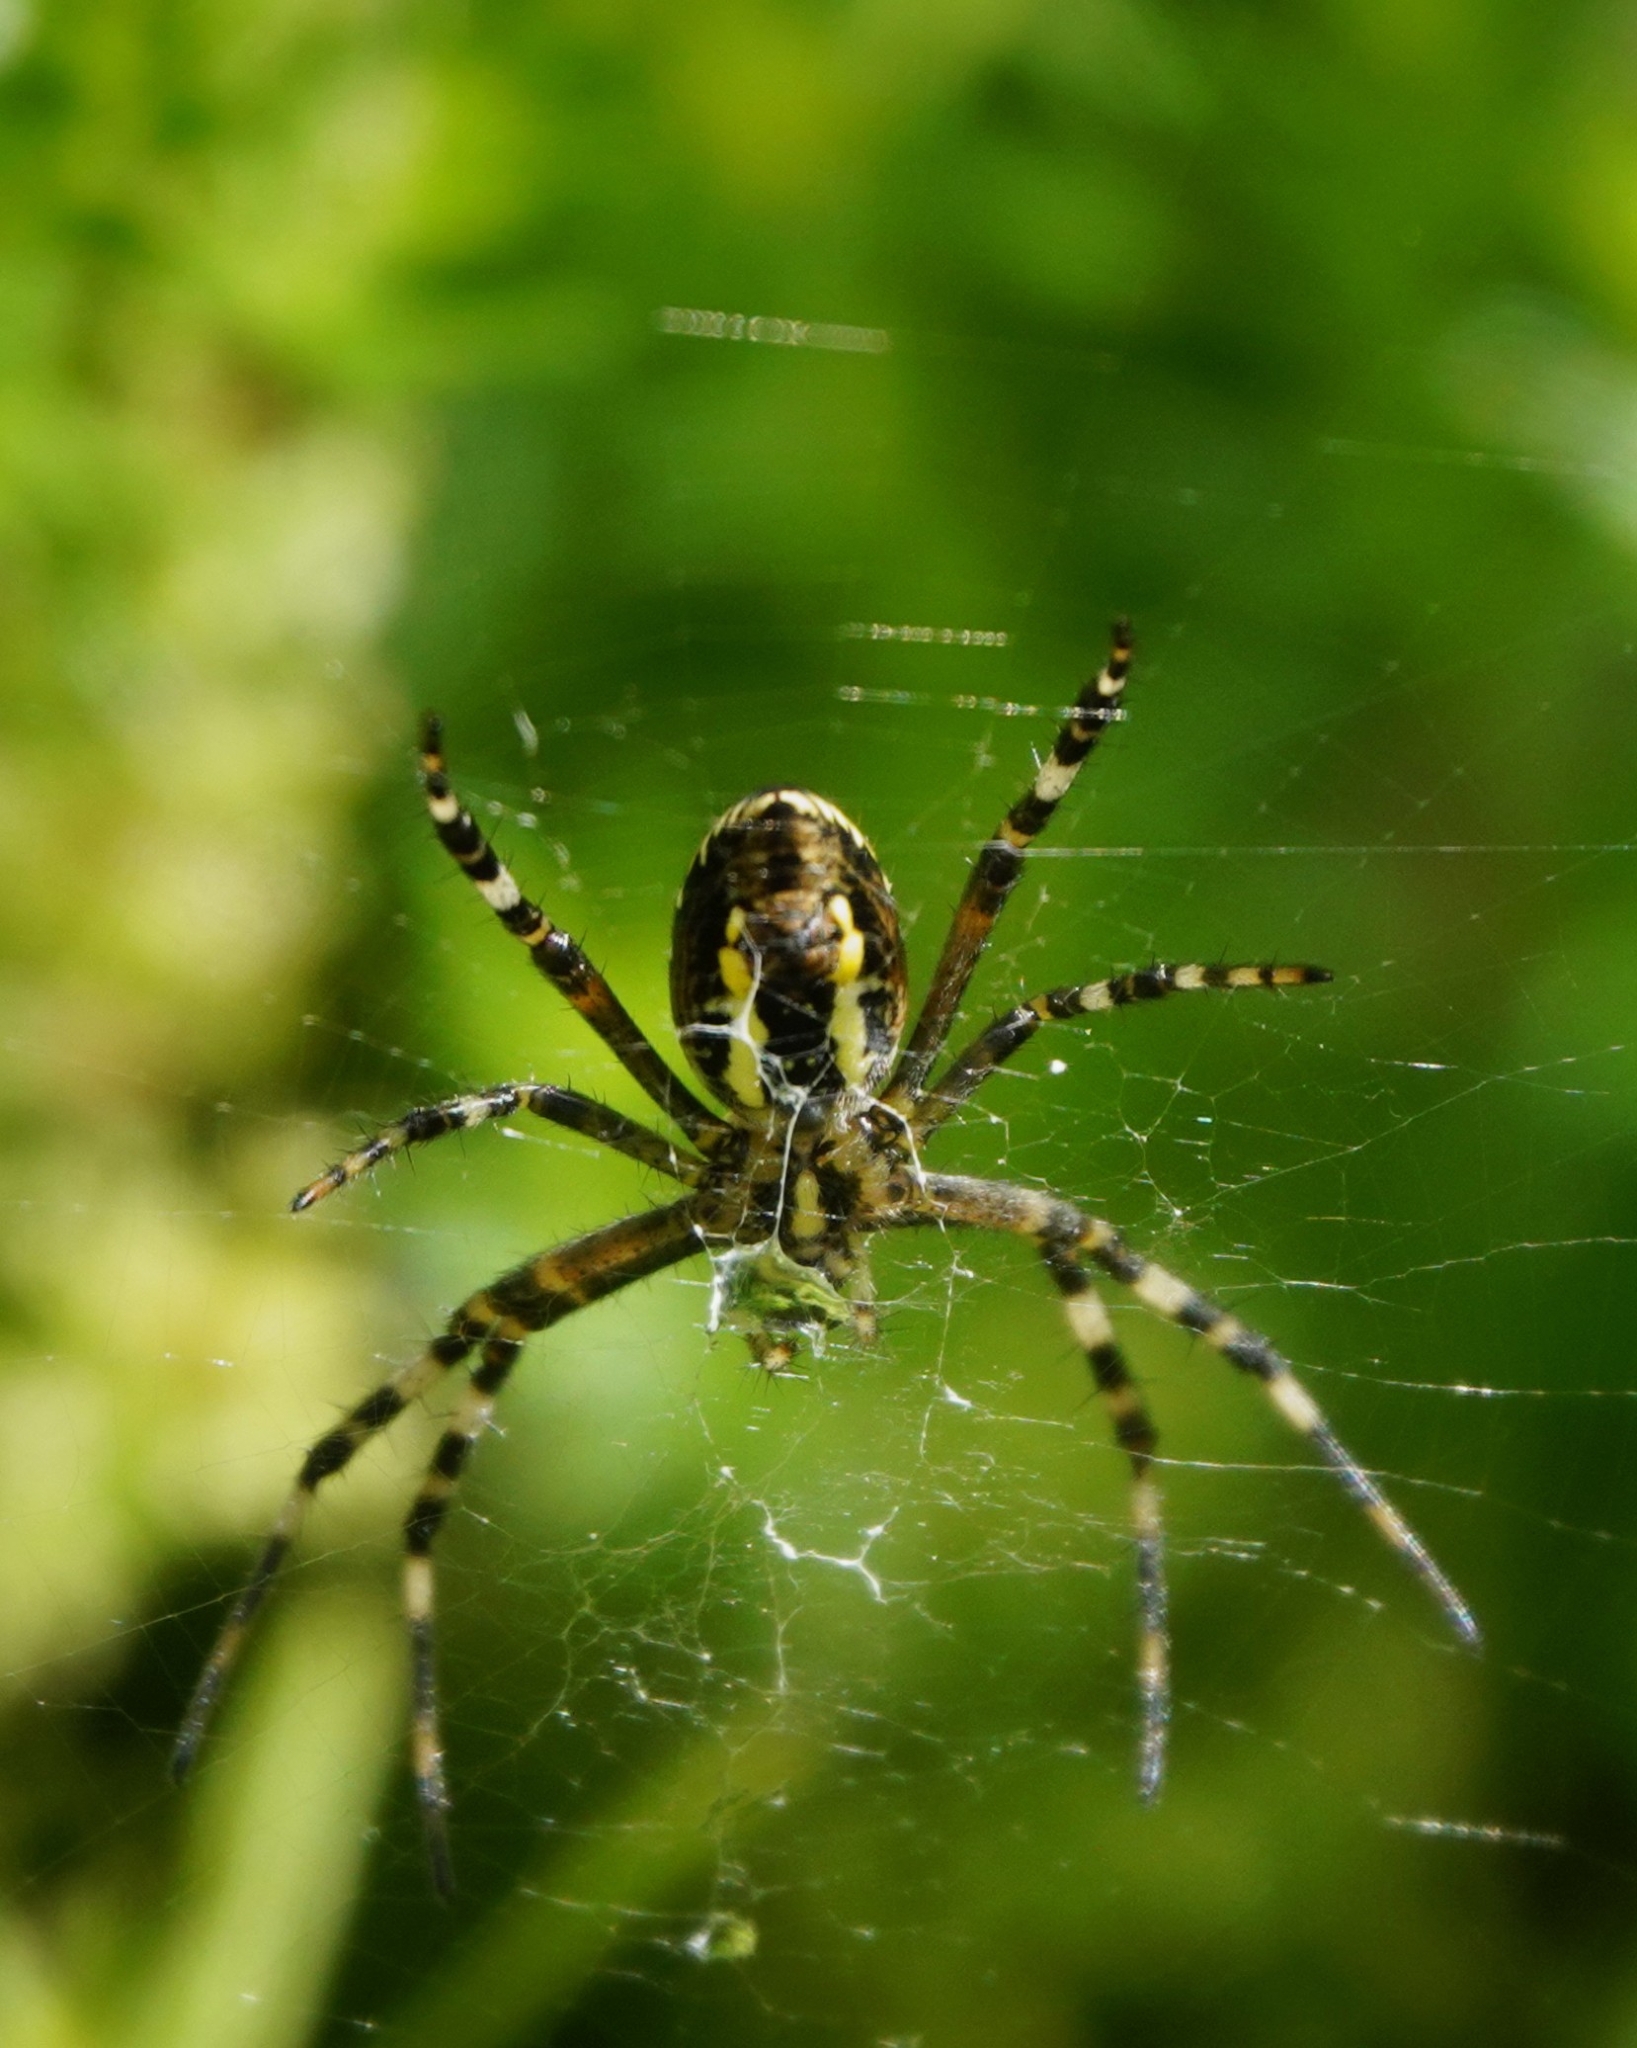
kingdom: Animalia
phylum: Arthropoda
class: Arachnida
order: Araneae
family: Araneidae
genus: Argiope
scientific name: Argiope bruennichi
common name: Wasp spider
